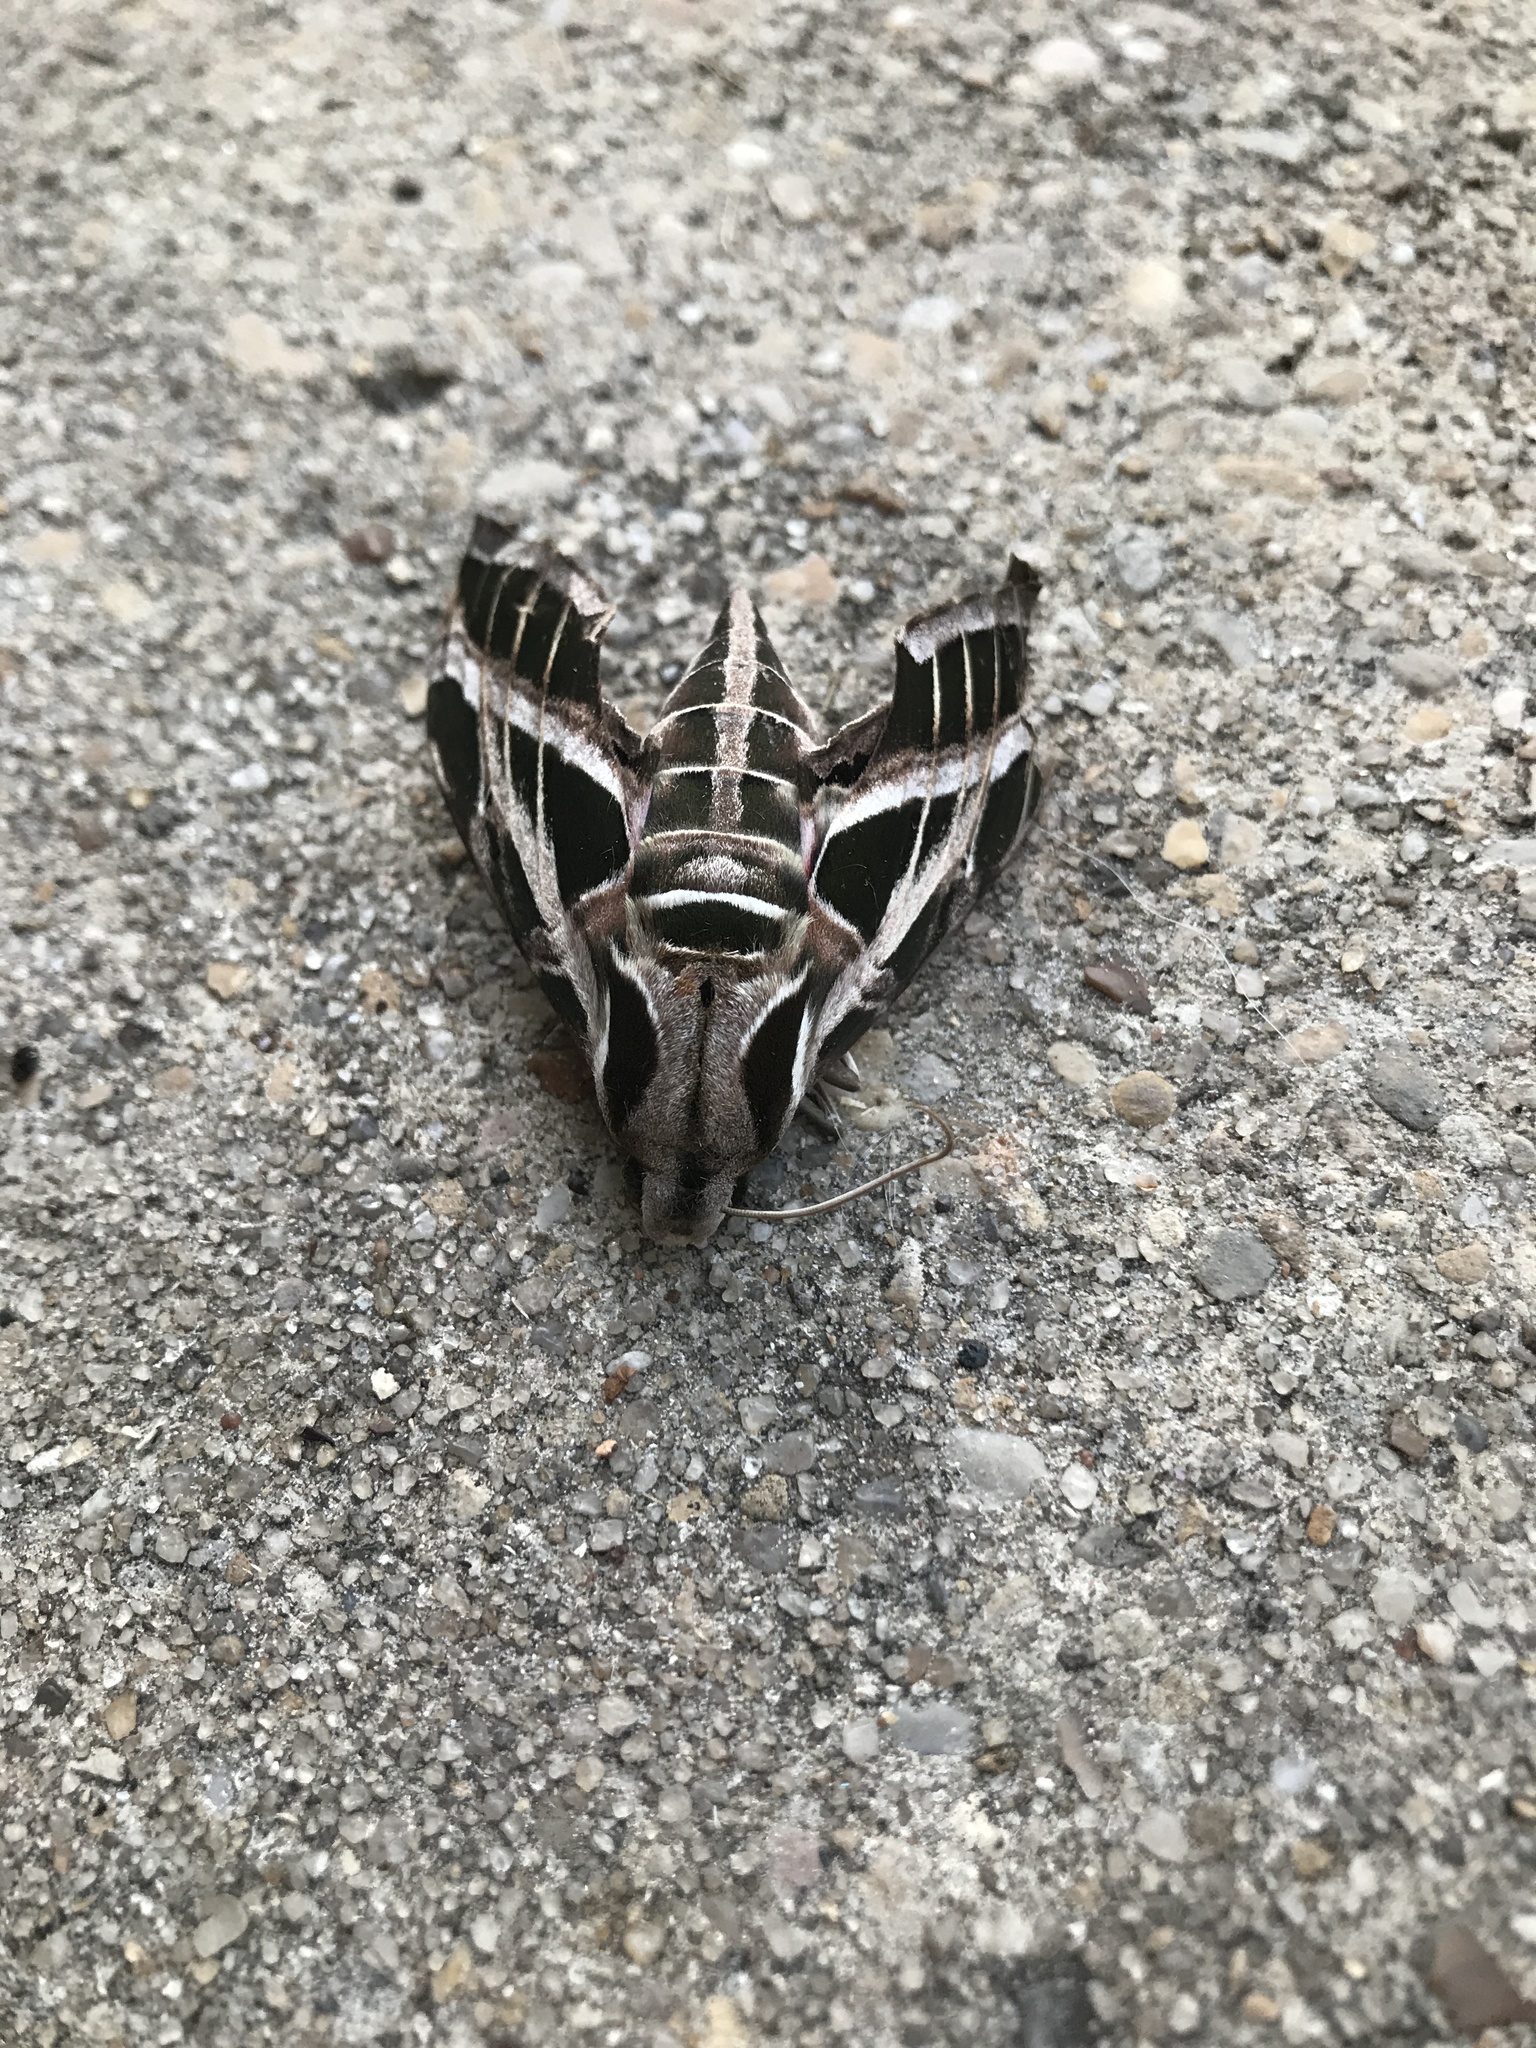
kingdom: Animalia
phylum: Arthropoda
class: Insecta
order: Lepidoptera
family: Sphingidae
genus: Eumorpha
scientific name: Eumorpha vitis
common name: Vine sphinx
